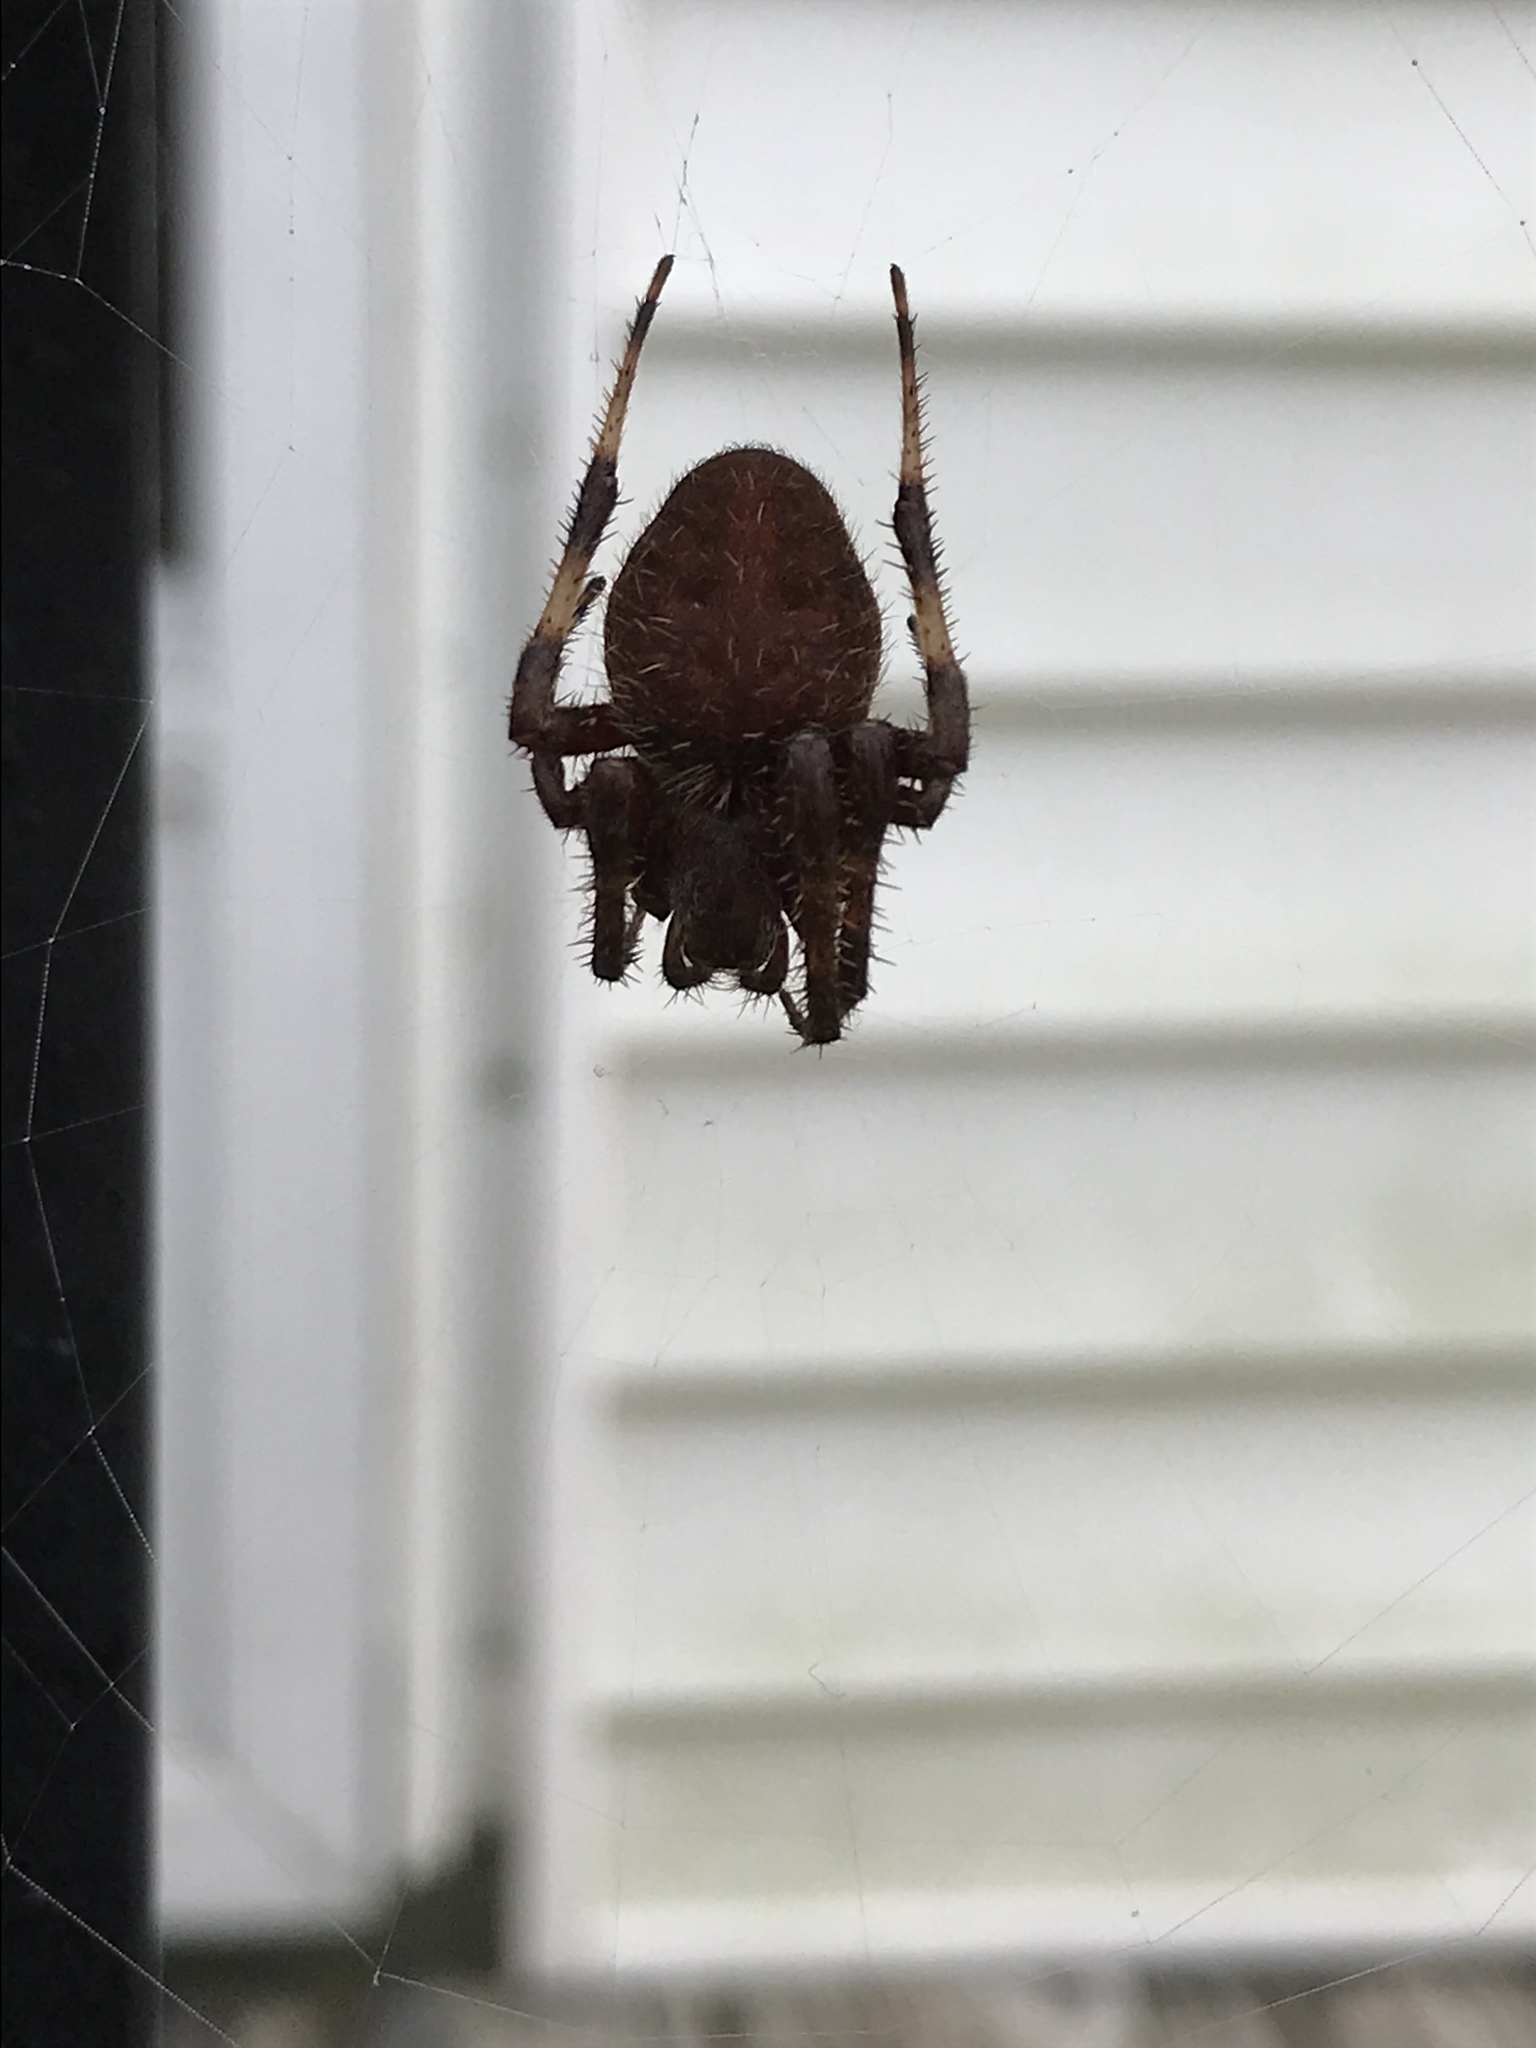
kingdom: Animalia
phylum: Arthropoda
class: Arachnida
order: Araneae
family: Araneidae
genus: Neoscona
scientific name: Neoscona crucifera
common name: Spotted orbweaver
